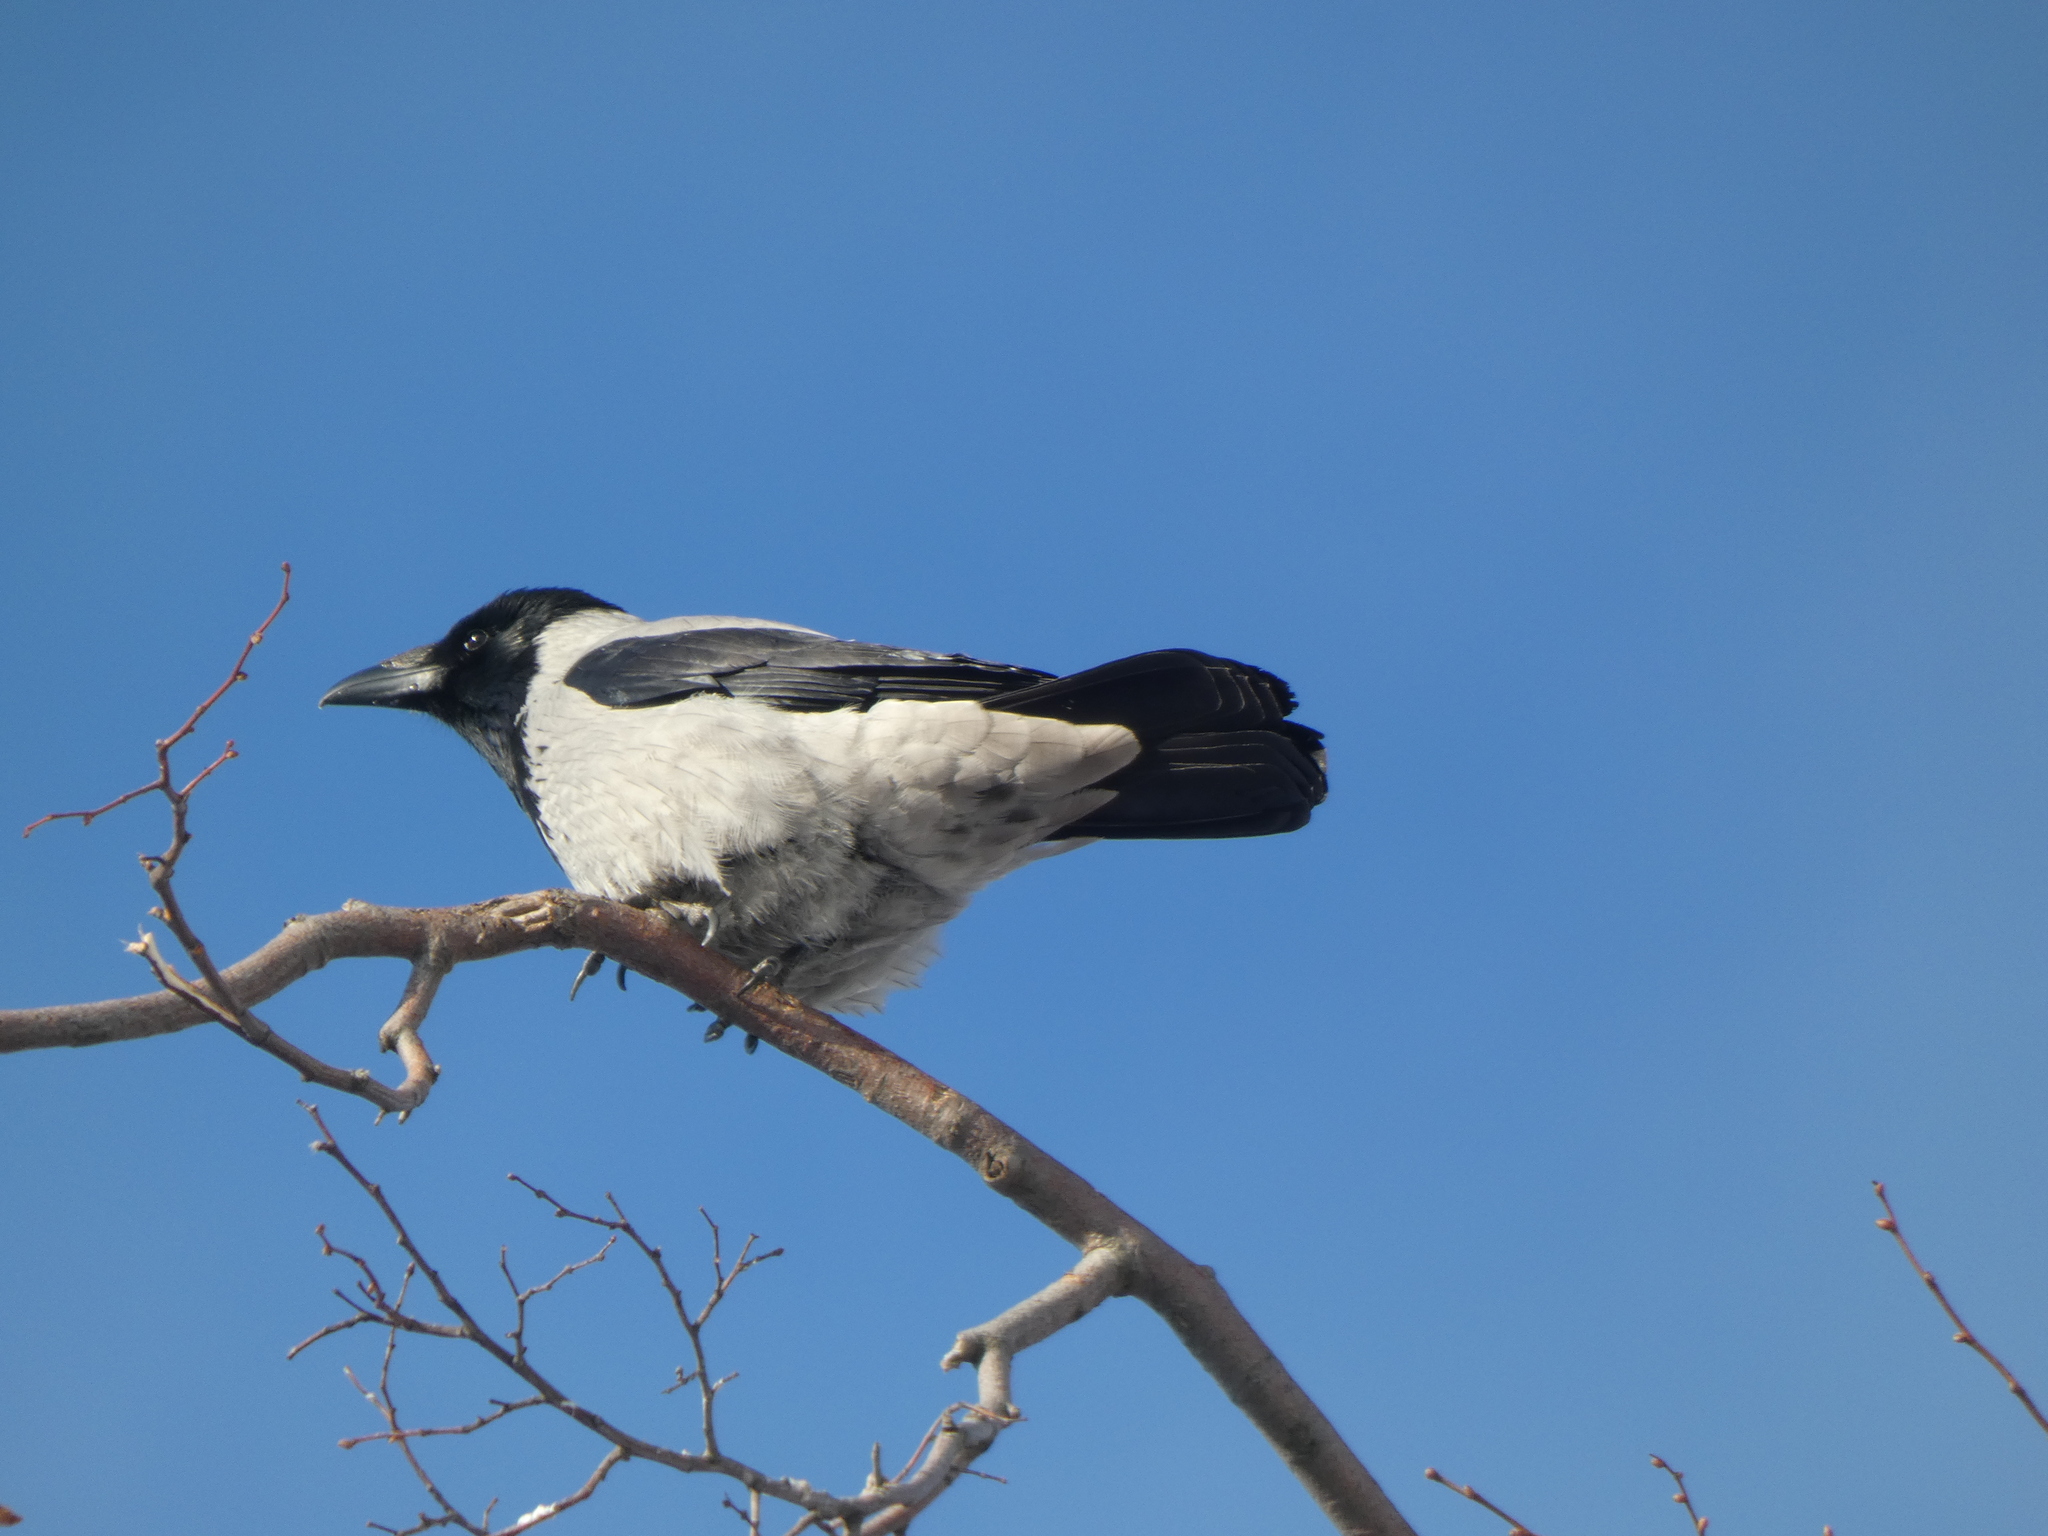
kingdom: Animalia
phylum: Chordata
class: Aves
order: Passeriformes
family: Corvidae
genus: Corvus
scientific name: Corvus cornix
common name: Hooded crow
